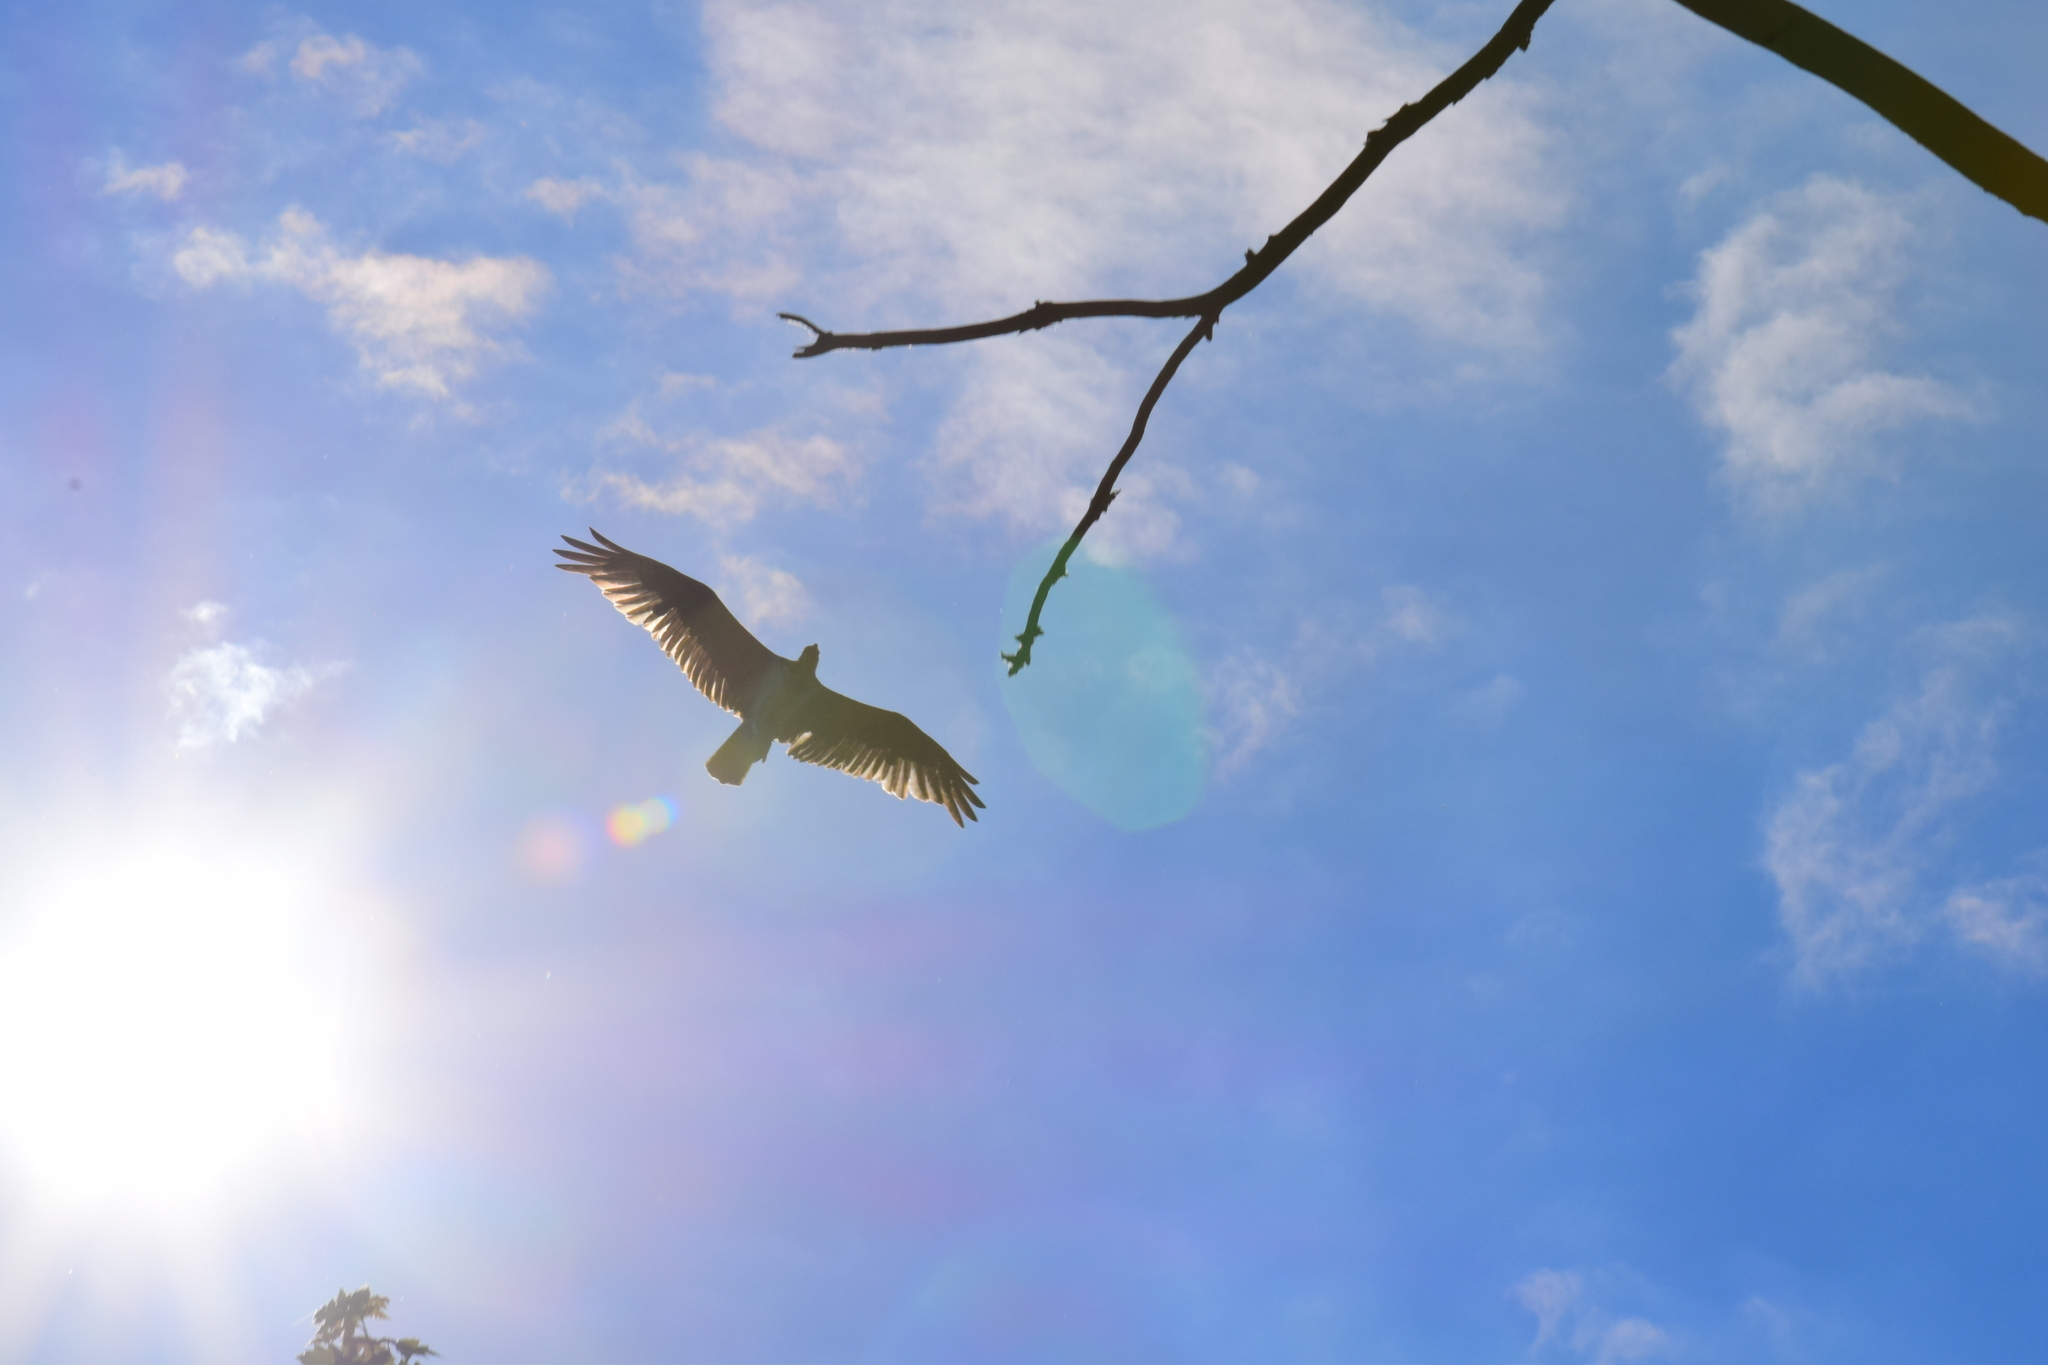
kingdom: Animalia
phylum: Chordata
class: Aves
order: Accipitriformes
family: Pandionidae
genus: Pandion
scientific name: Pandion haliaetus
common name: Osprey
